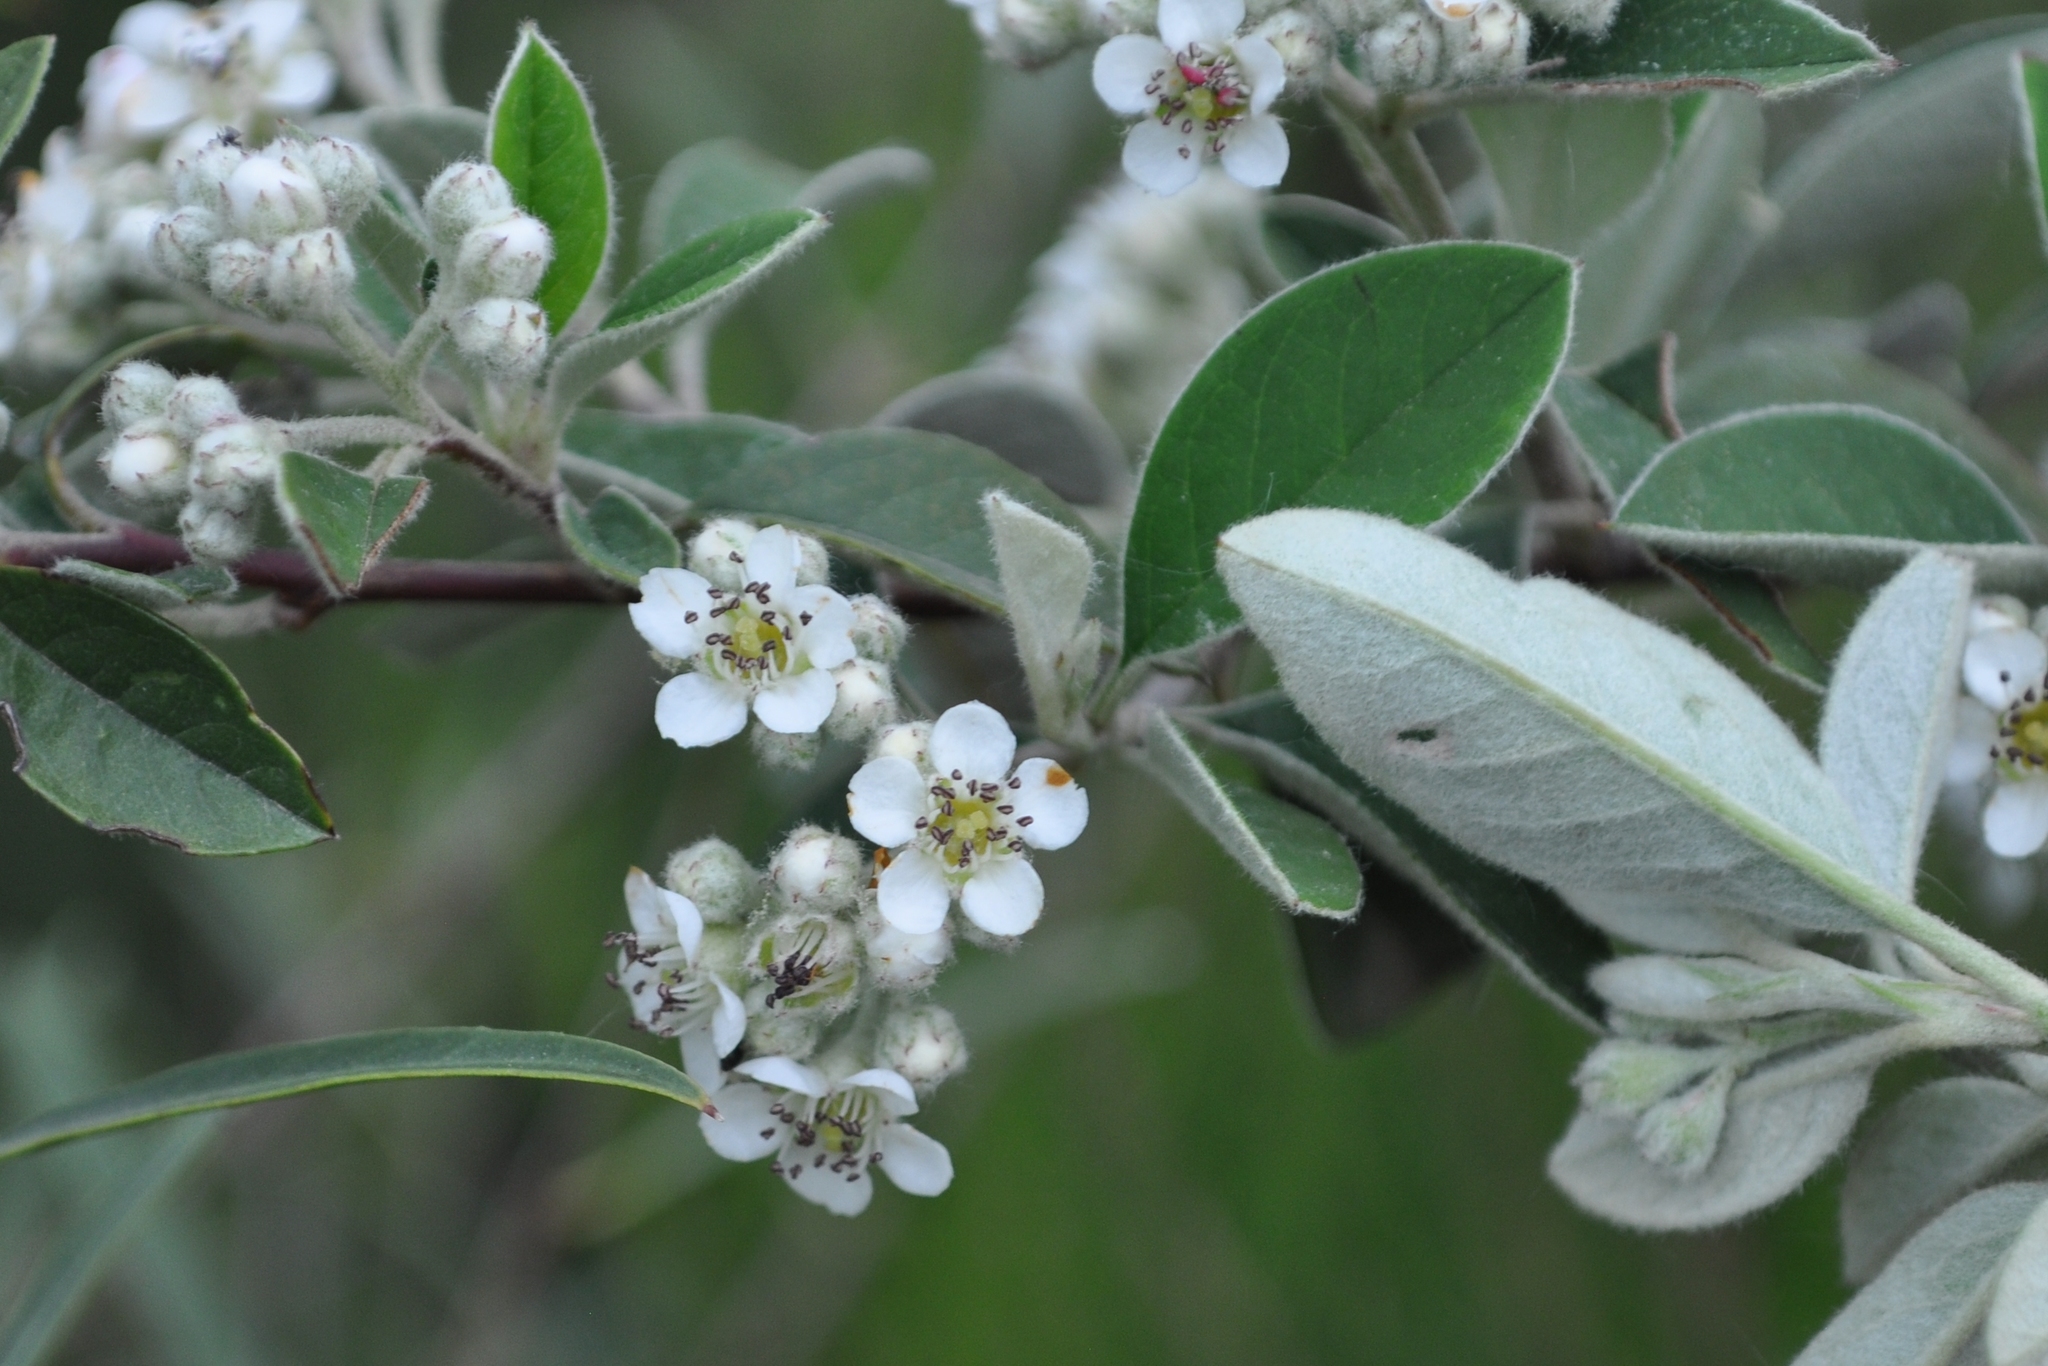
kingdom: Plantae
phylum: Tracheophyta
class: Magnoliopsida
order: Rosales
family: Rosaceae
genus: Cotoneaster
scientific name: Cotoneaster pannosus
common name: Silverleaf cotoneaster
